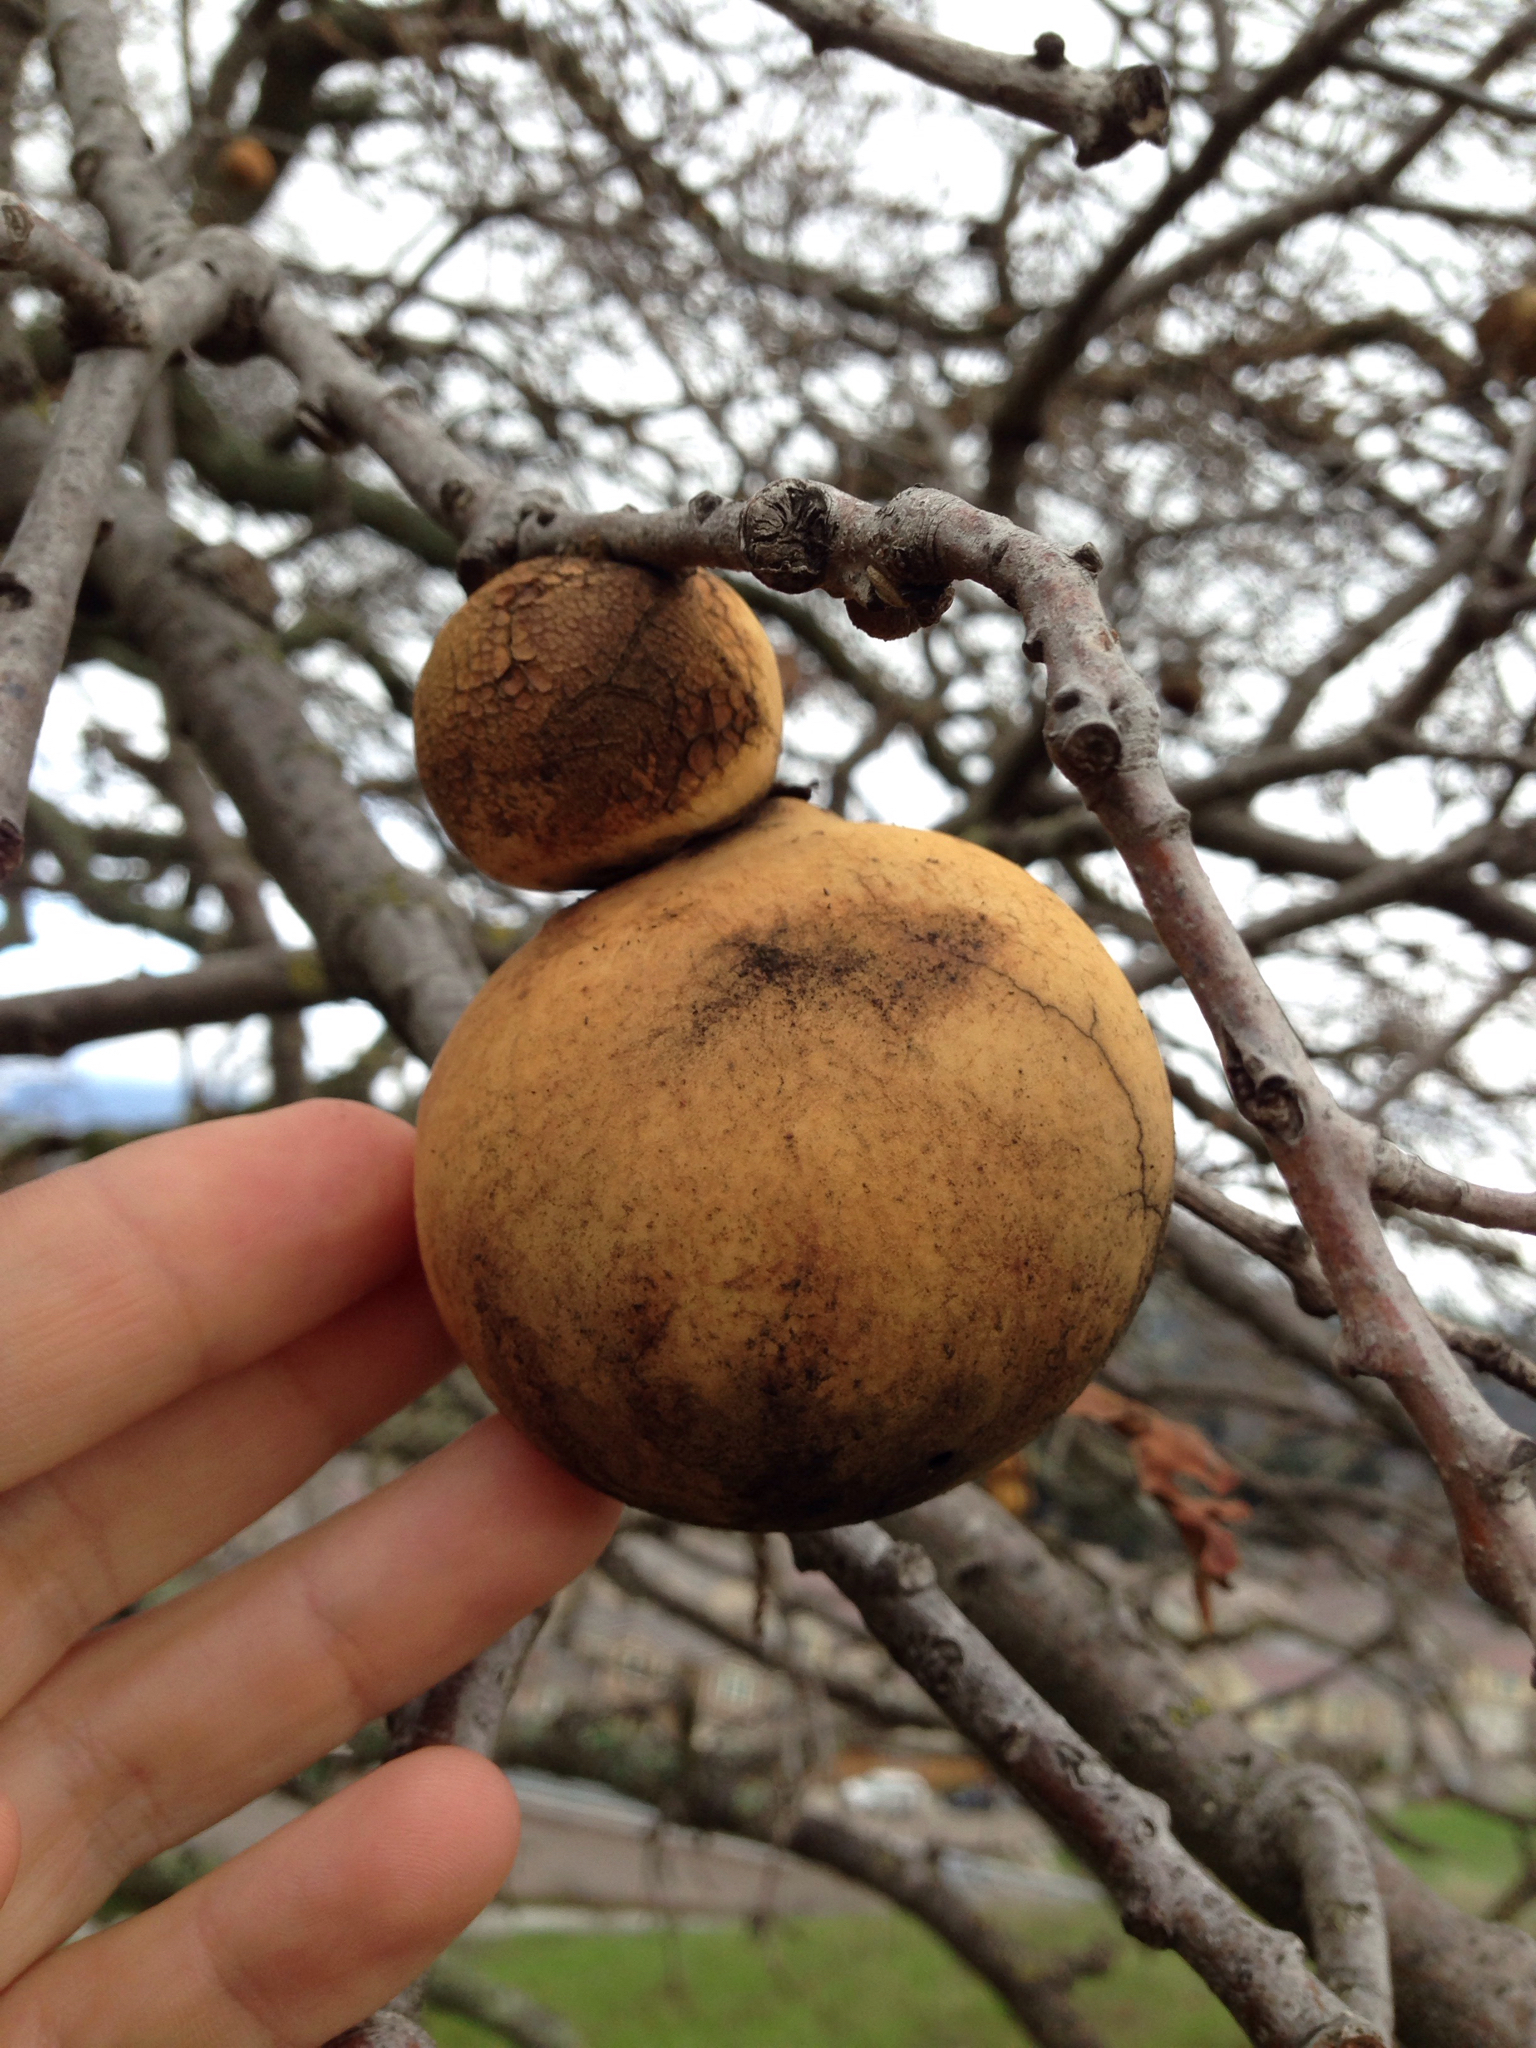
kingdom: Animalia
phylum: Arthropoda
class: Insecta
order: Hymenoptera
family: Cynipidae
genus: Andricus
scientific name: Andricus quercuscalifornicus
